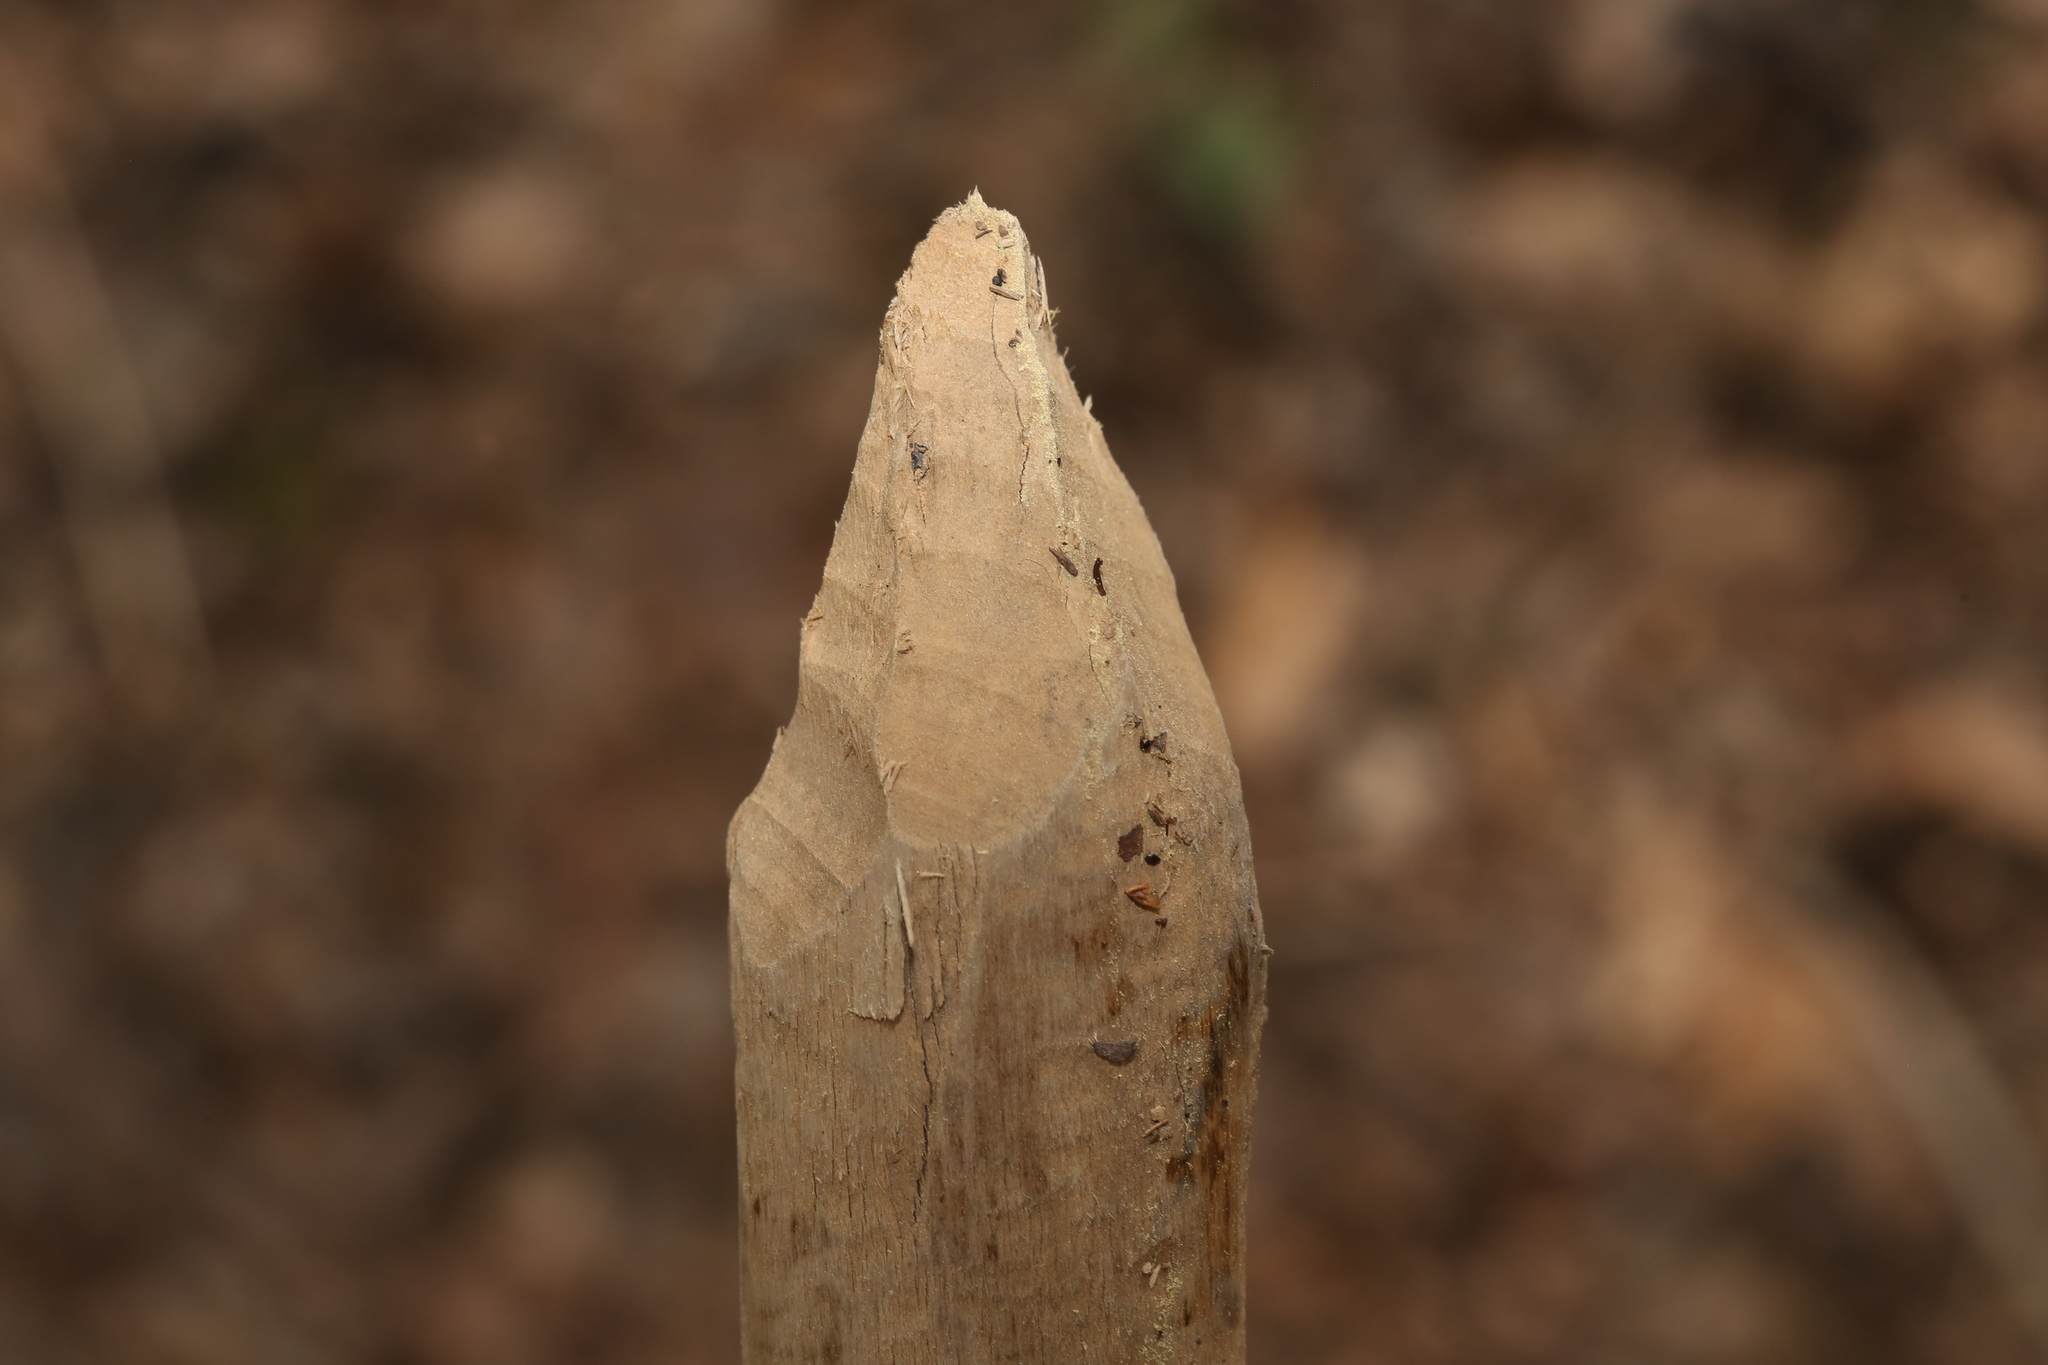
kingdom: Animalia
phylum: Chordata
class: Mammalia
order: Rodentia
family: Castoridae
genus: Castor
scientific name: Castor canadensis
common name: American beaver
